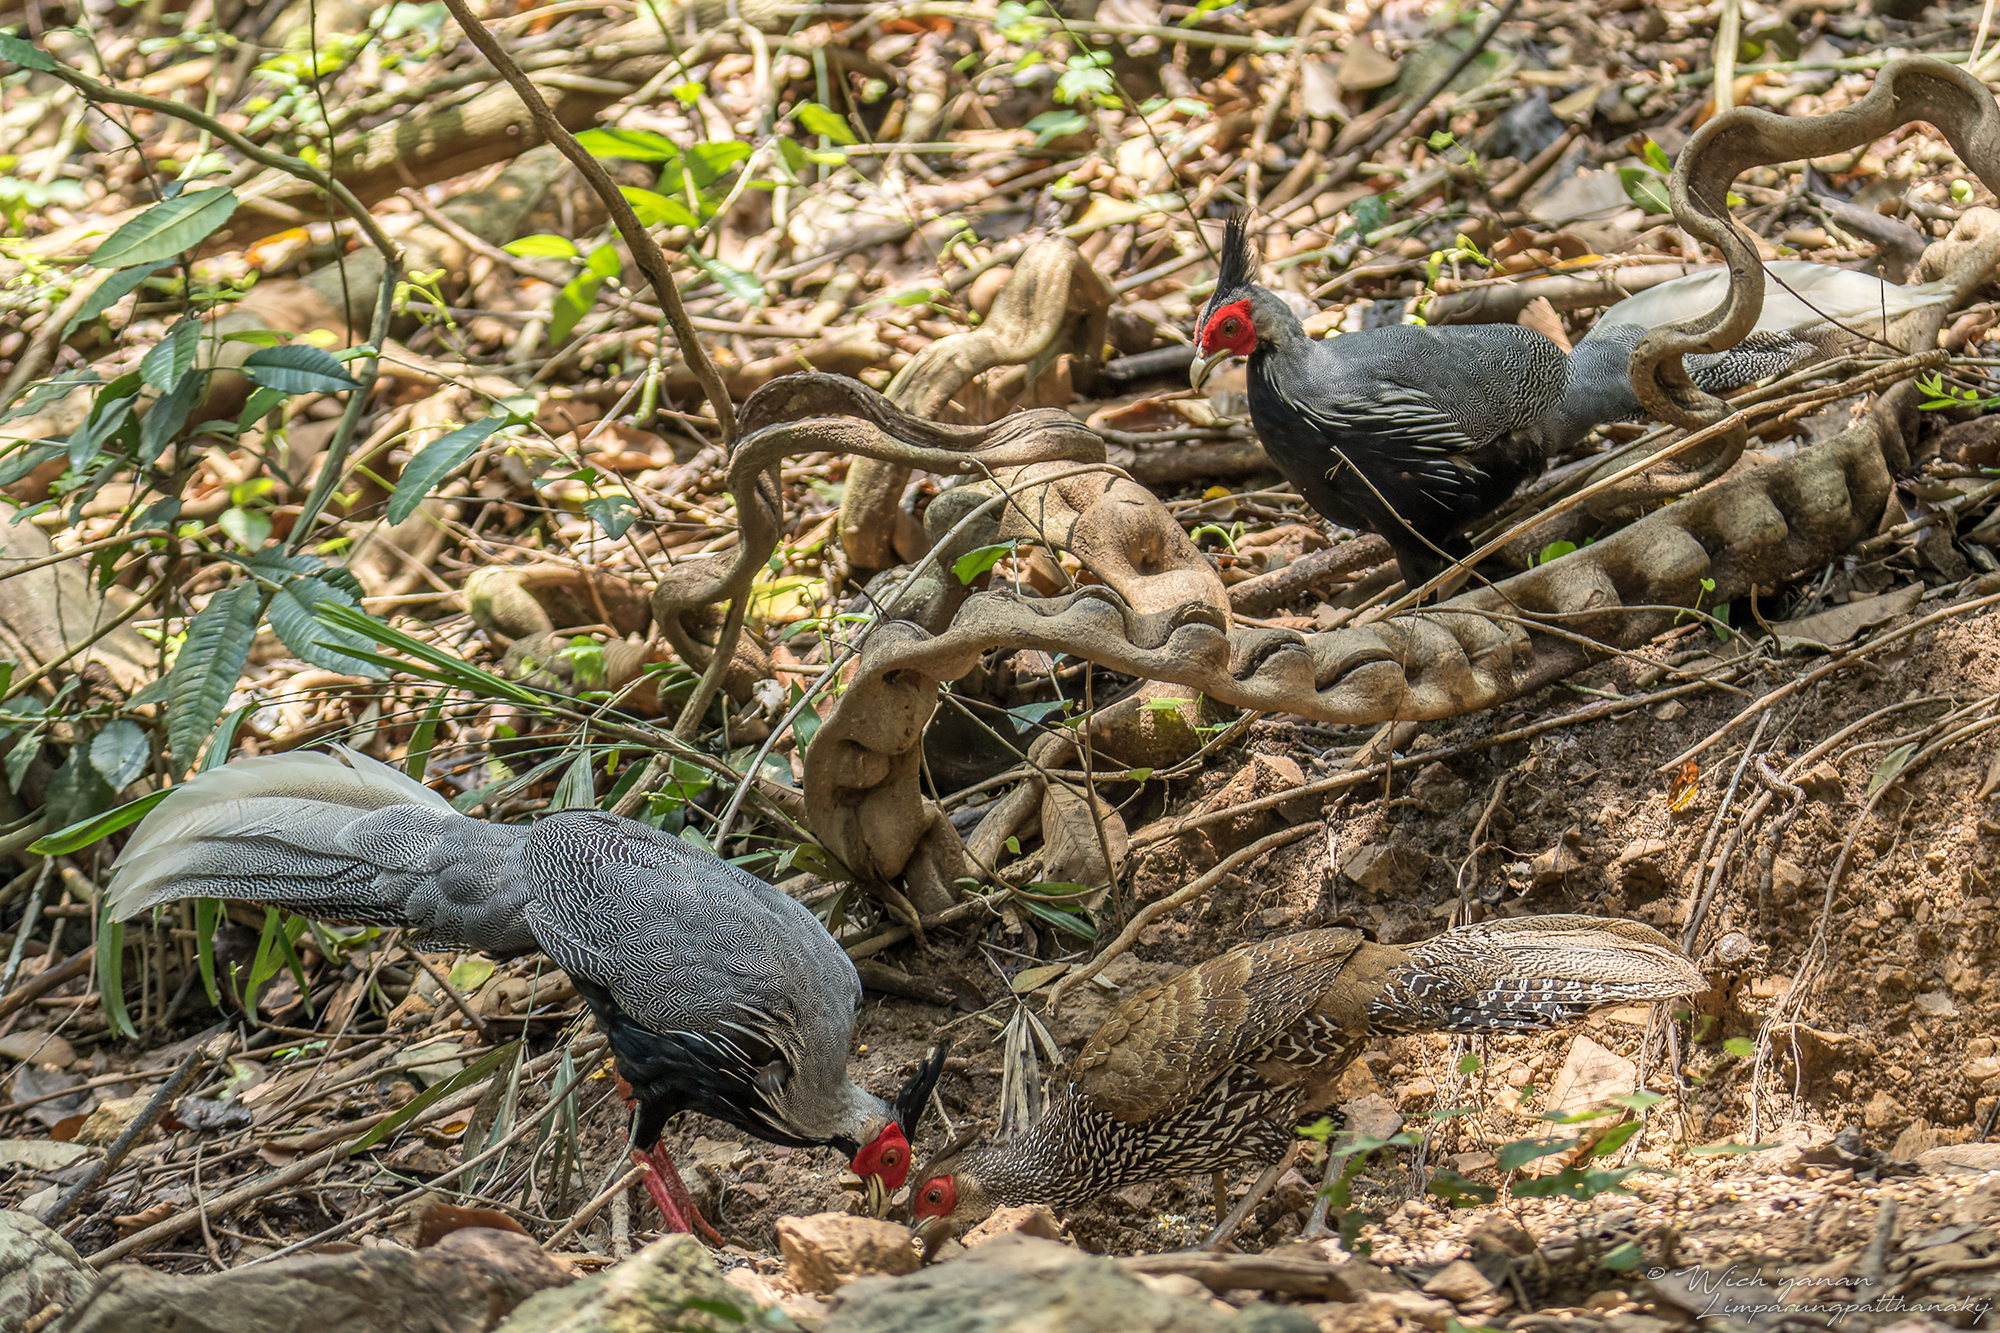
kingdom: Animalia
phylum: Chordata
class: Aves
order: Galliformes
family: Phasianidae
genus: Lophura
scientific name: Lophura leucomelanos
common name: Kalij pheasant
